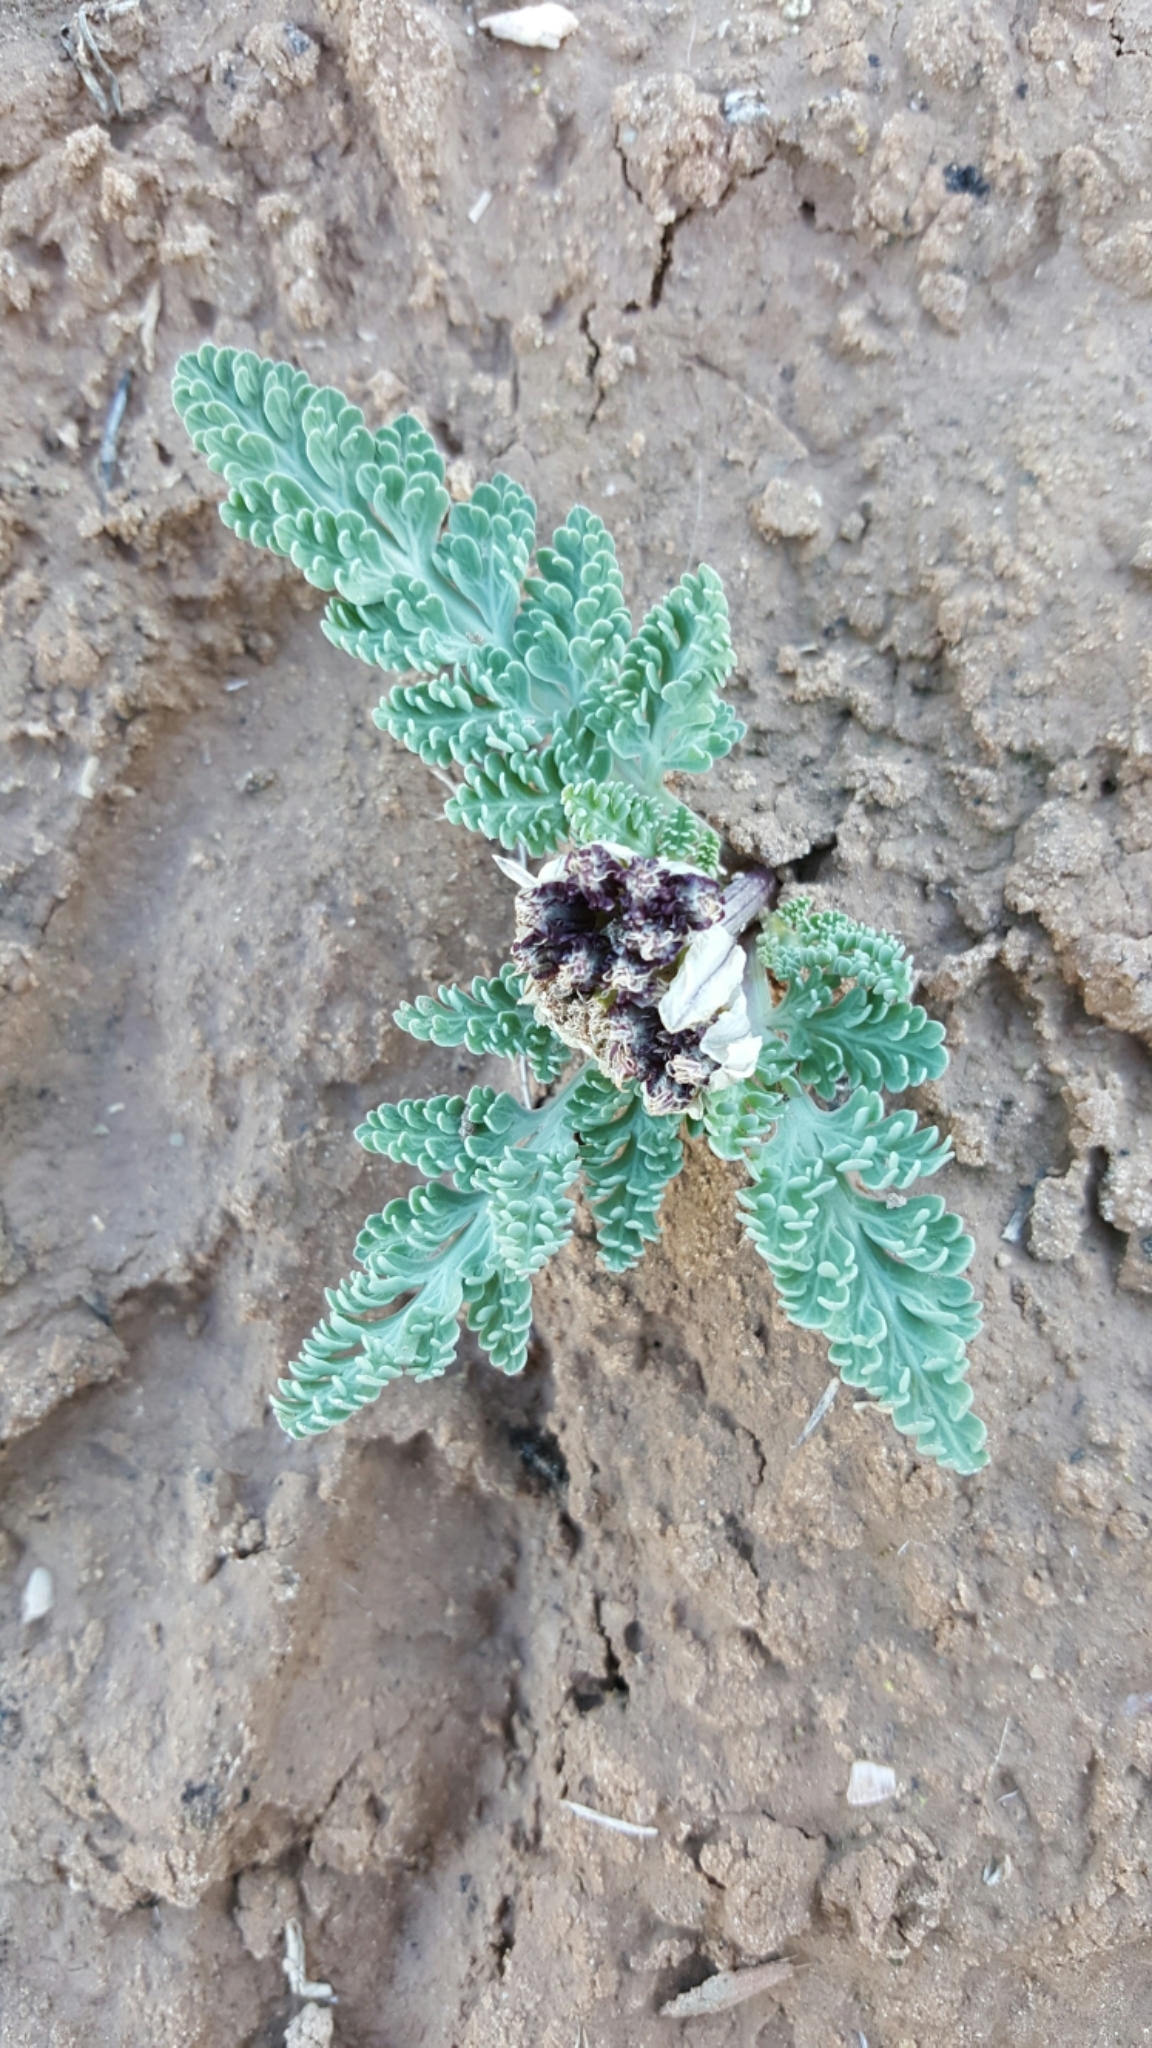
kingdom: Plantae
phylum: Tracheophyta
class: Magnoliopsida
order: Apiales
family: Apiaceae
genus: Vesper
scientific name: Vesper purpurascens
